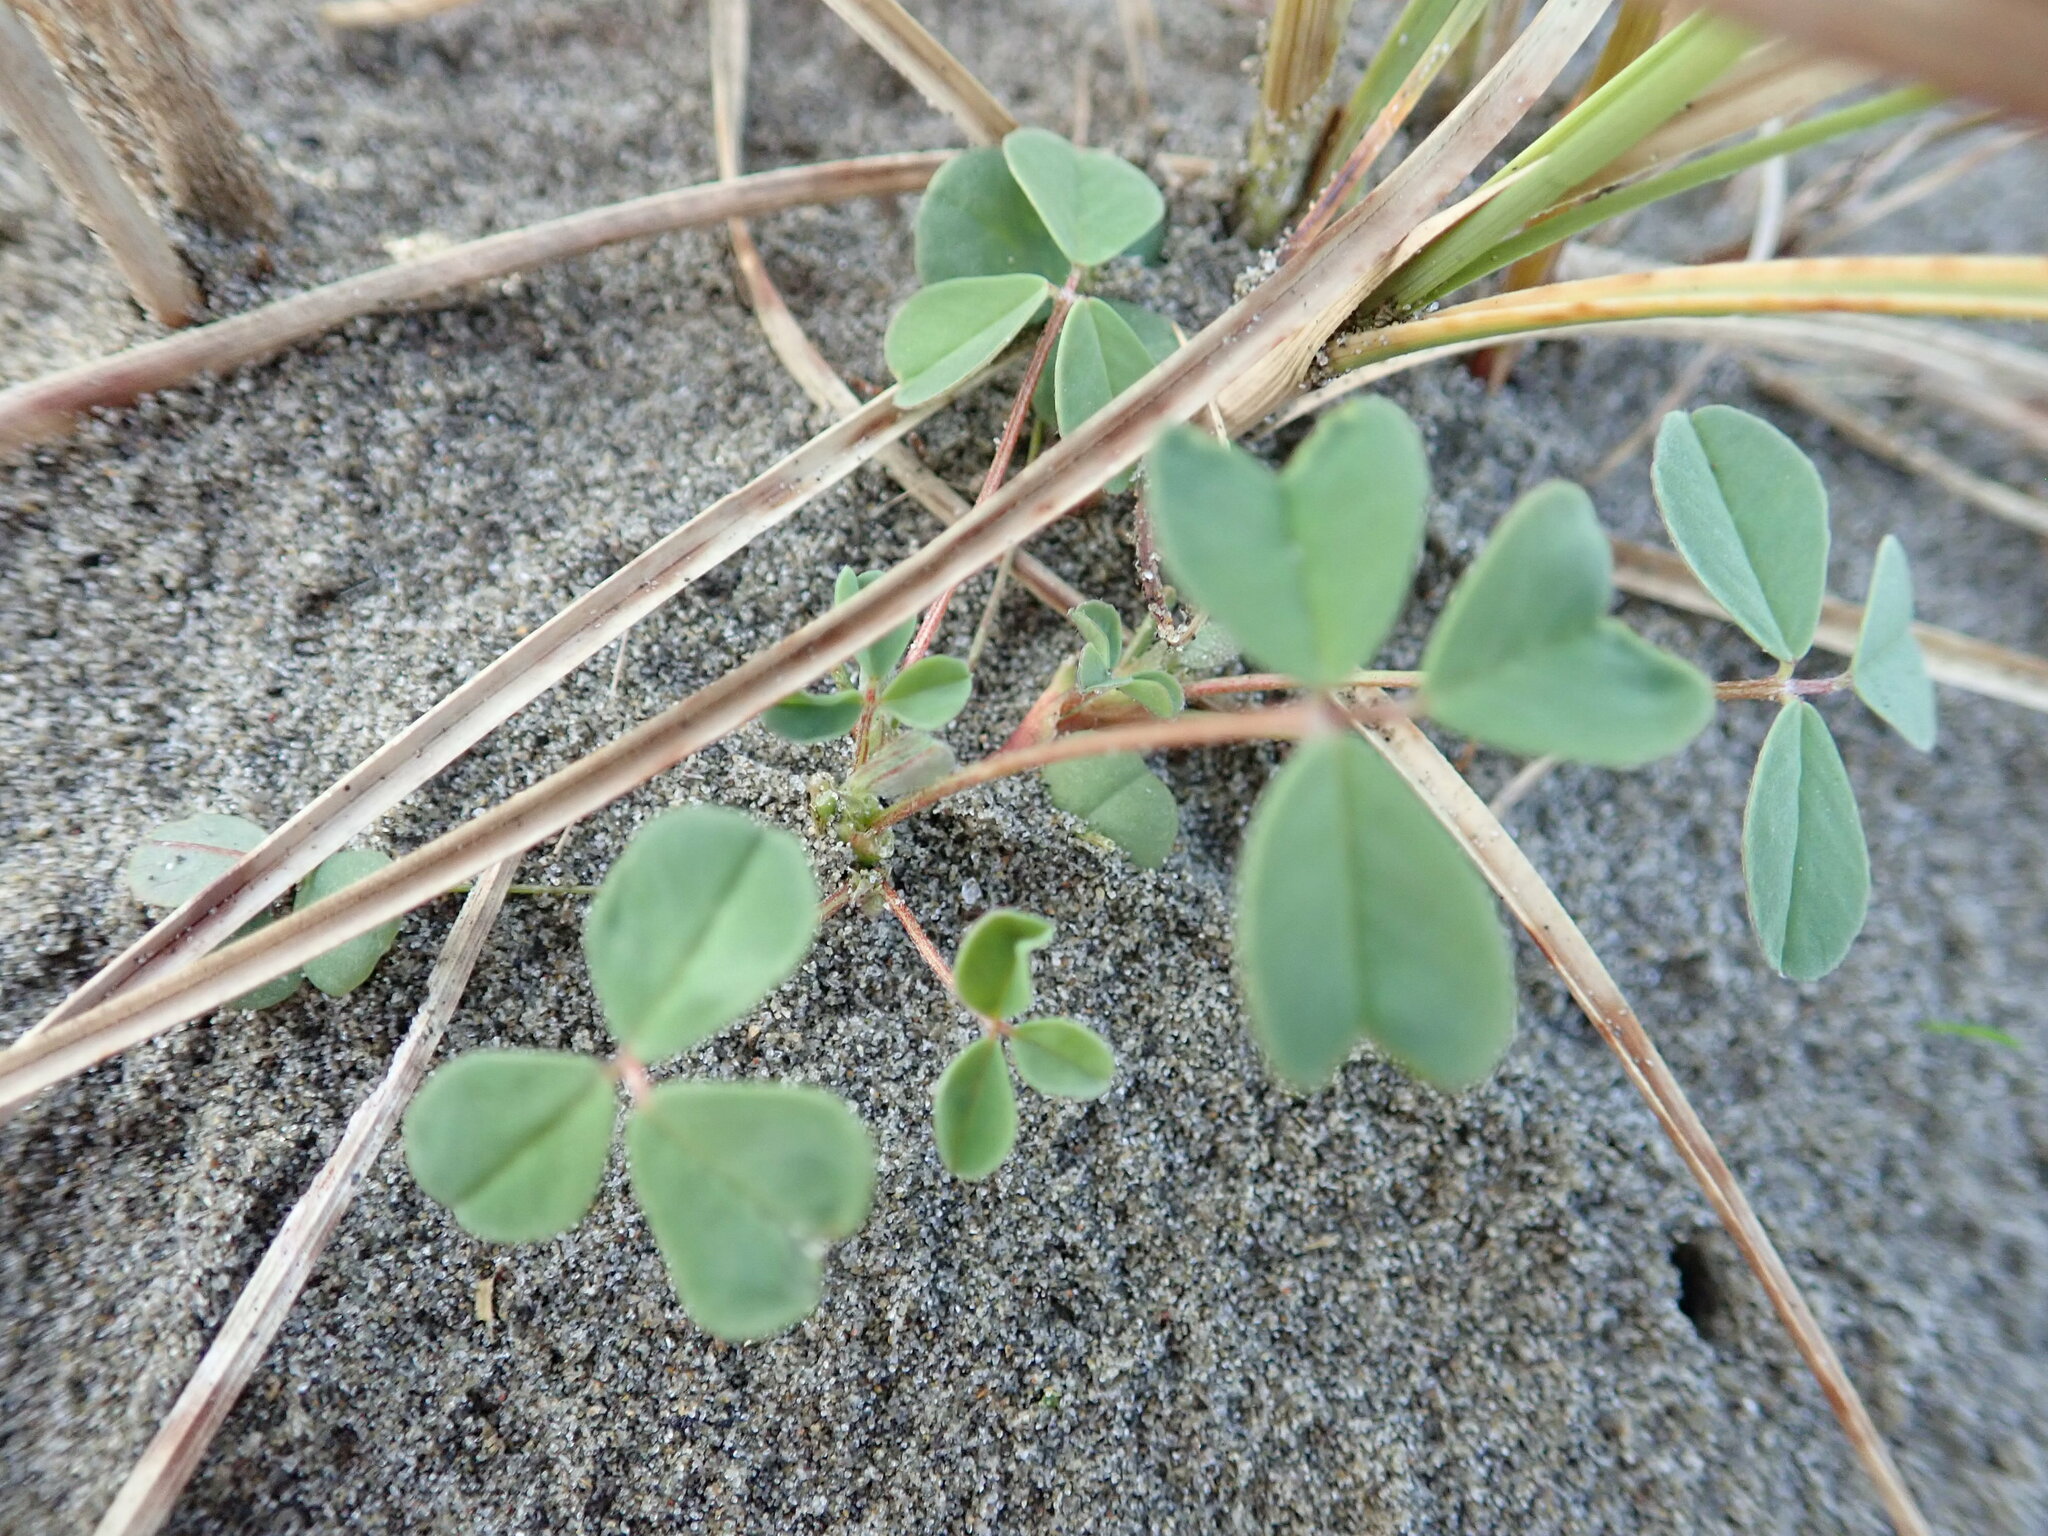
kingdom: Plantae
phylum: Tracheophyta
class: Magnoliopsida
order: Fabales
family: Fabaceae
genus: Melilotus
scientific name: Melilotus indicus
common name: Small melilot
